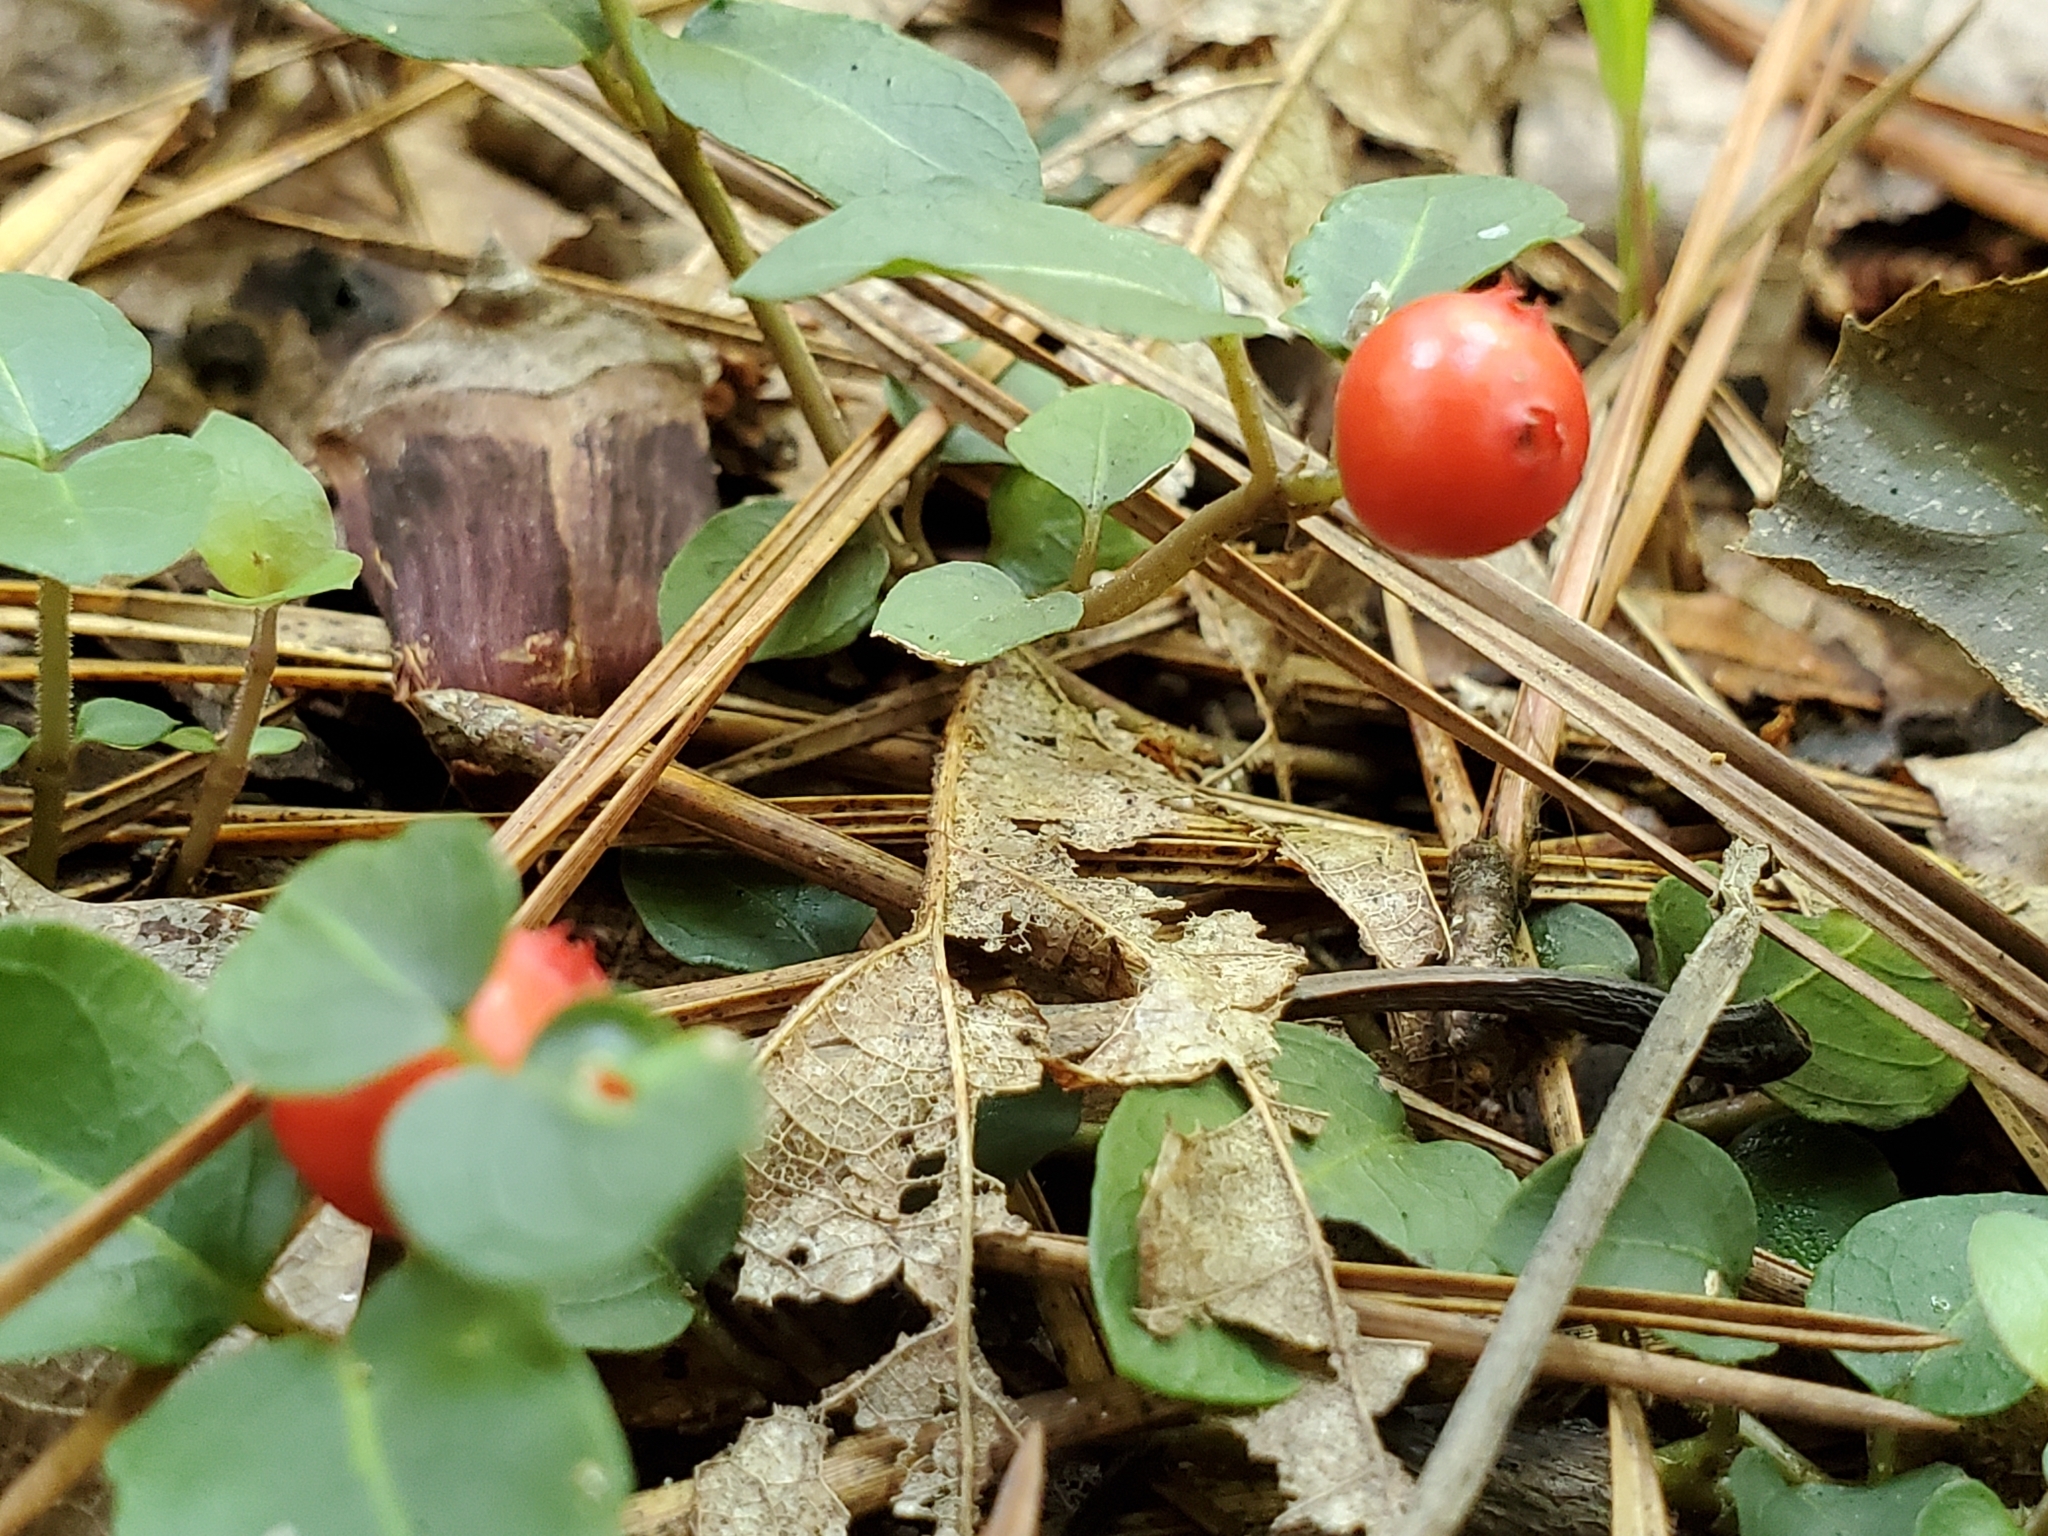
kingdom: Plantae
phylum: Tracheophyta
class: Magnoliopsida
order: Gentianales
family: Rubiaceae
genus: Mitchella
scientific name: Mitchella repens
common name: Partridge-berry
